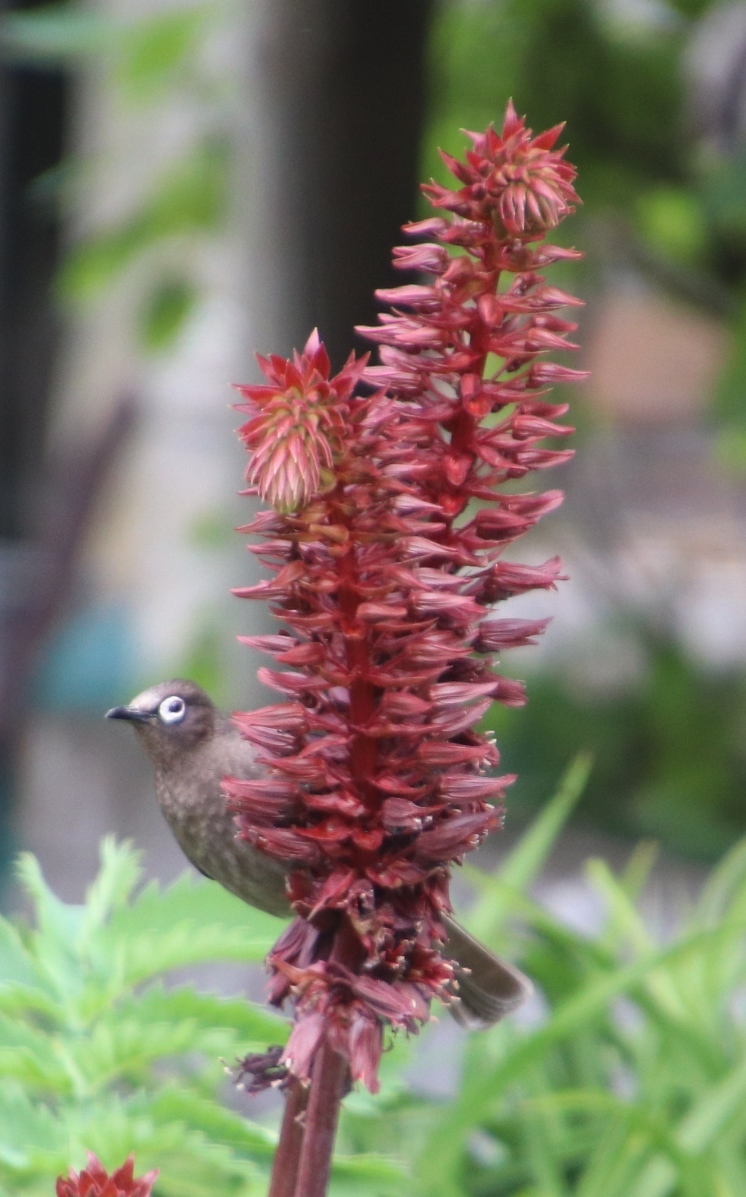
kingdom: Animalia
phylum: Chordata
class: Aves
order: Passeriformes
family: Pycnonotidae
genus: Pycnonotus
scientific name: Pycnonotus capensis
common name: Cape bulbul
